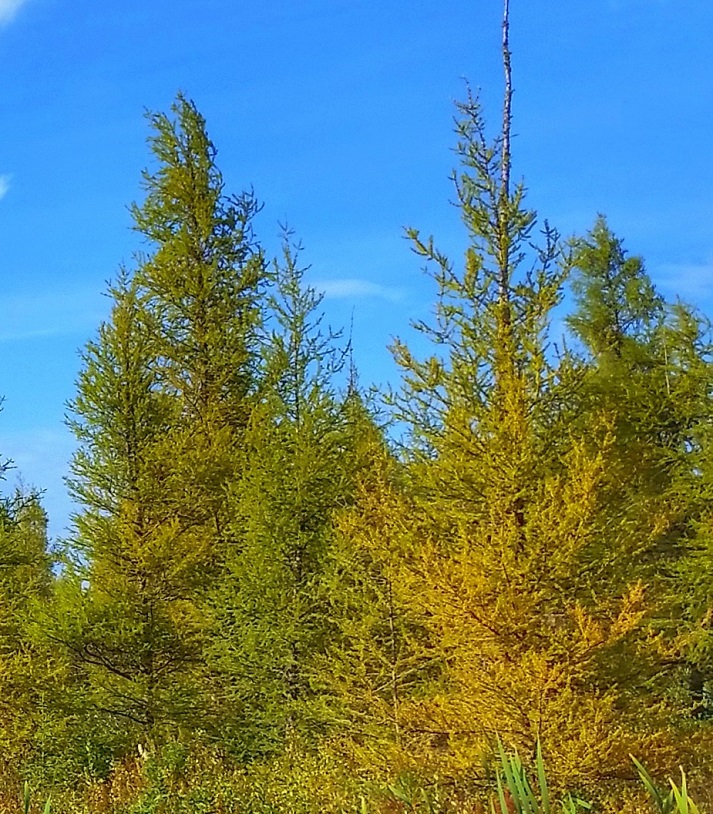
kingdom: Plantae
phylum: Tracheophyta
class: Pinopsida
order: Pinales
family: Pinaceae
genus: Larix
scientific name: Larix laricina
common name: American larch
